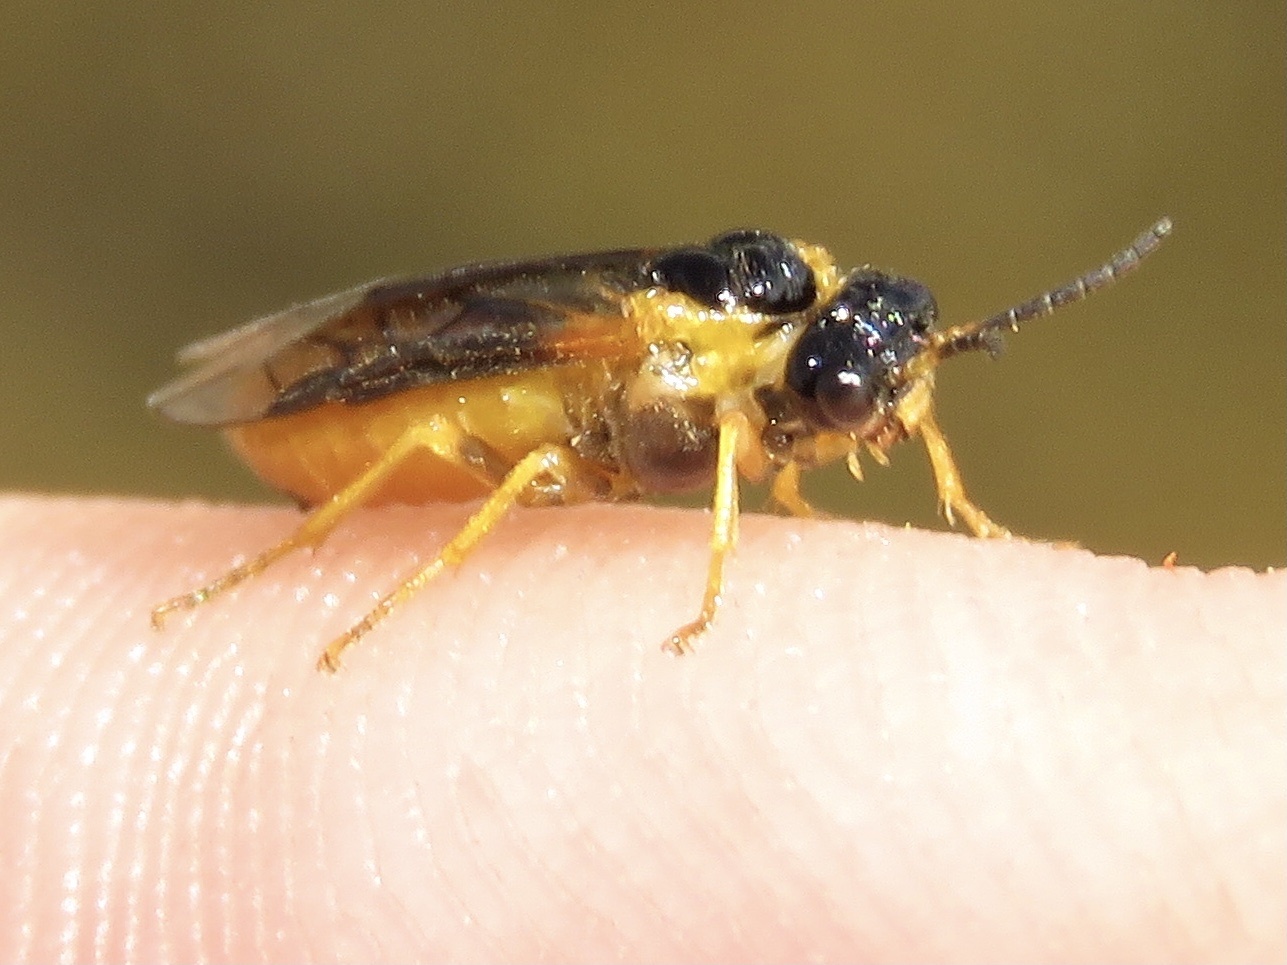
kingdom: Animalia
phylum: Arthropoda
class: Insecta
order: Hymenoptera
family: Tenthredinidae
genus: Brachythops
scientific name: Brachythops flavens
